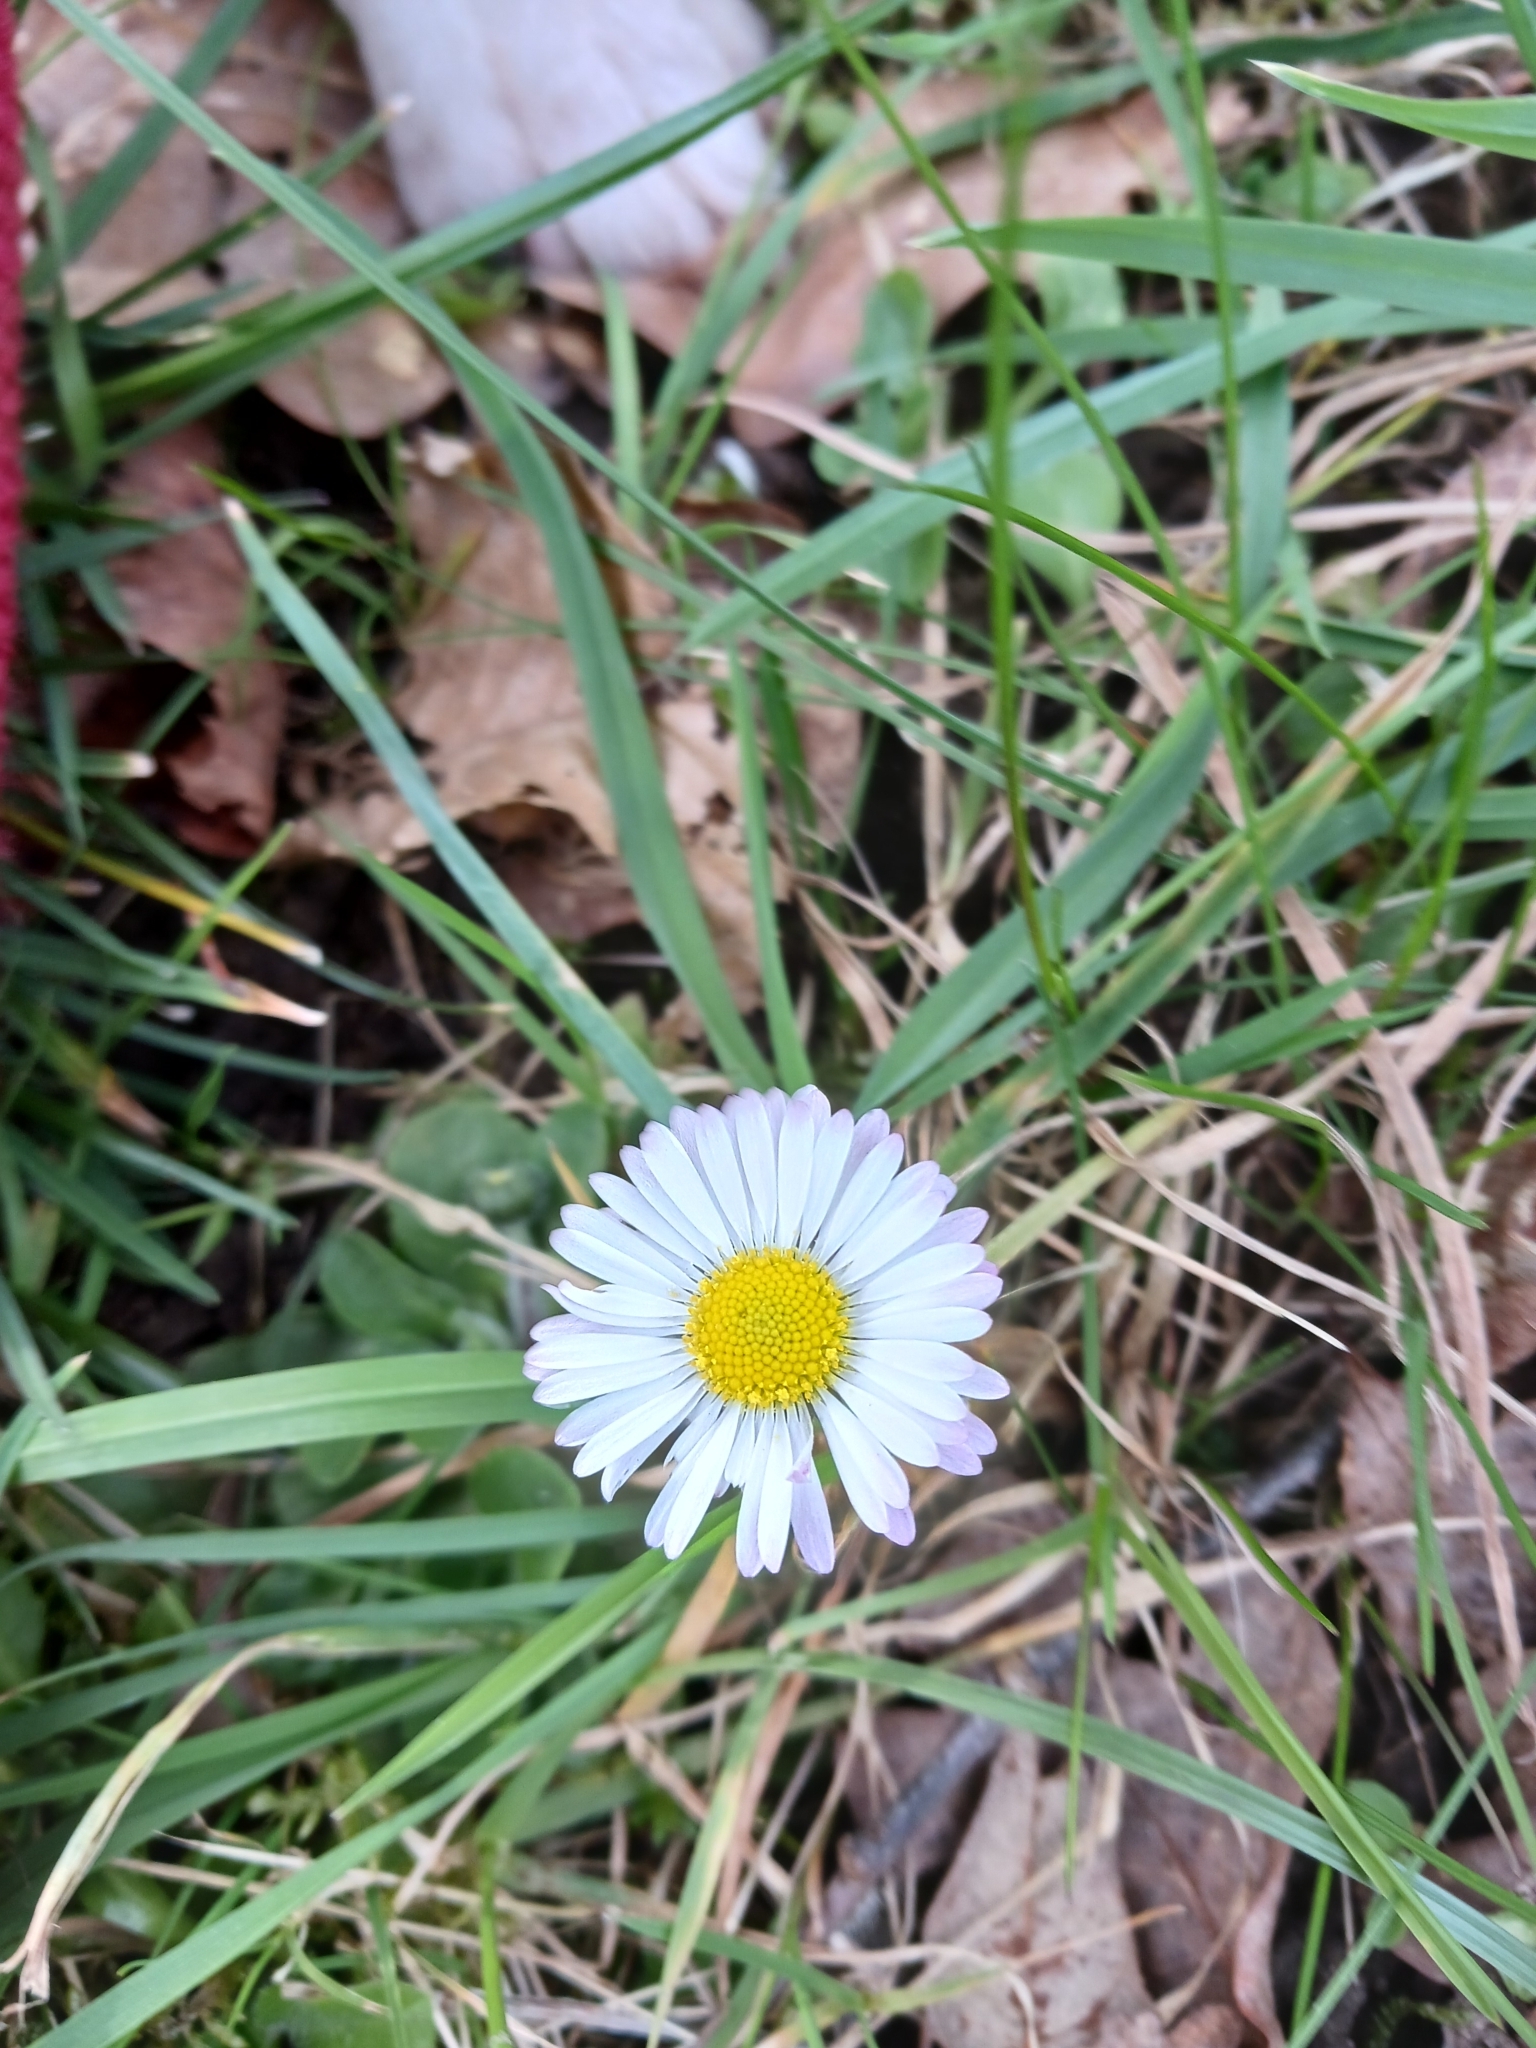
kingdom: Plantae
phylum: Tracheophyta
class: Magnoliopsida
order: Asterales
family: Asteraceae
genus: Bellis
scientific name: Bellis perennis
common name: Lawndaisy
